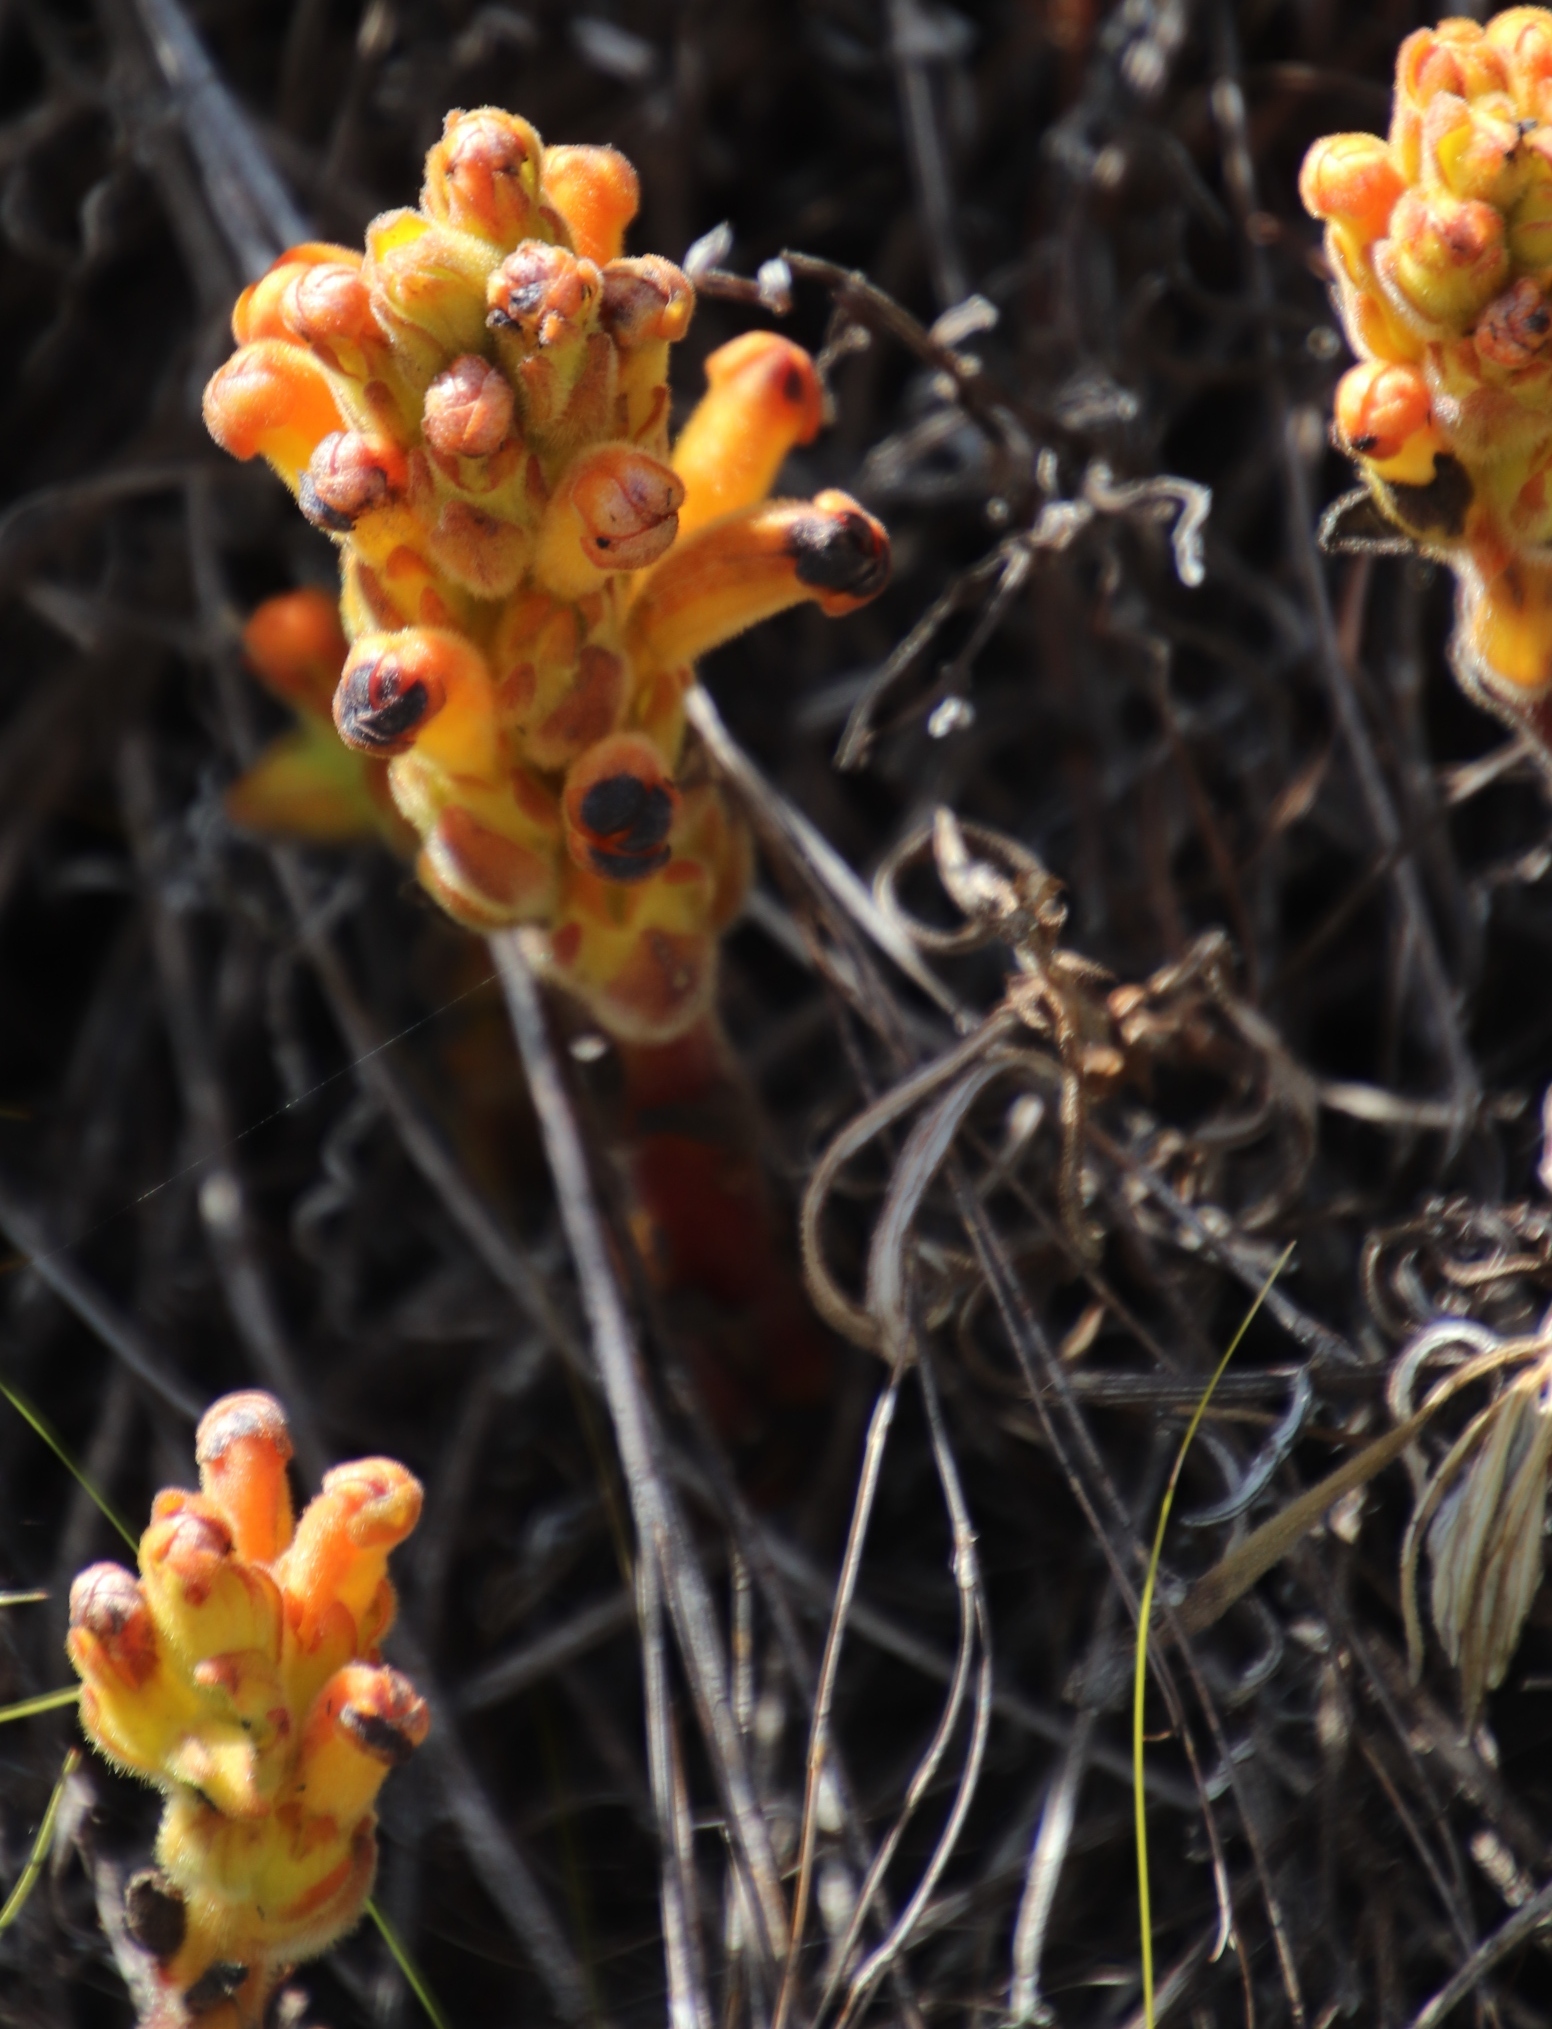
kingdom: Plantae
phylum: Tracheophyta
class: Magnoliopsida
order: Lamiales
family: Orobanchaceae
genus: Harveya
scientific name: Harveya squamosa
